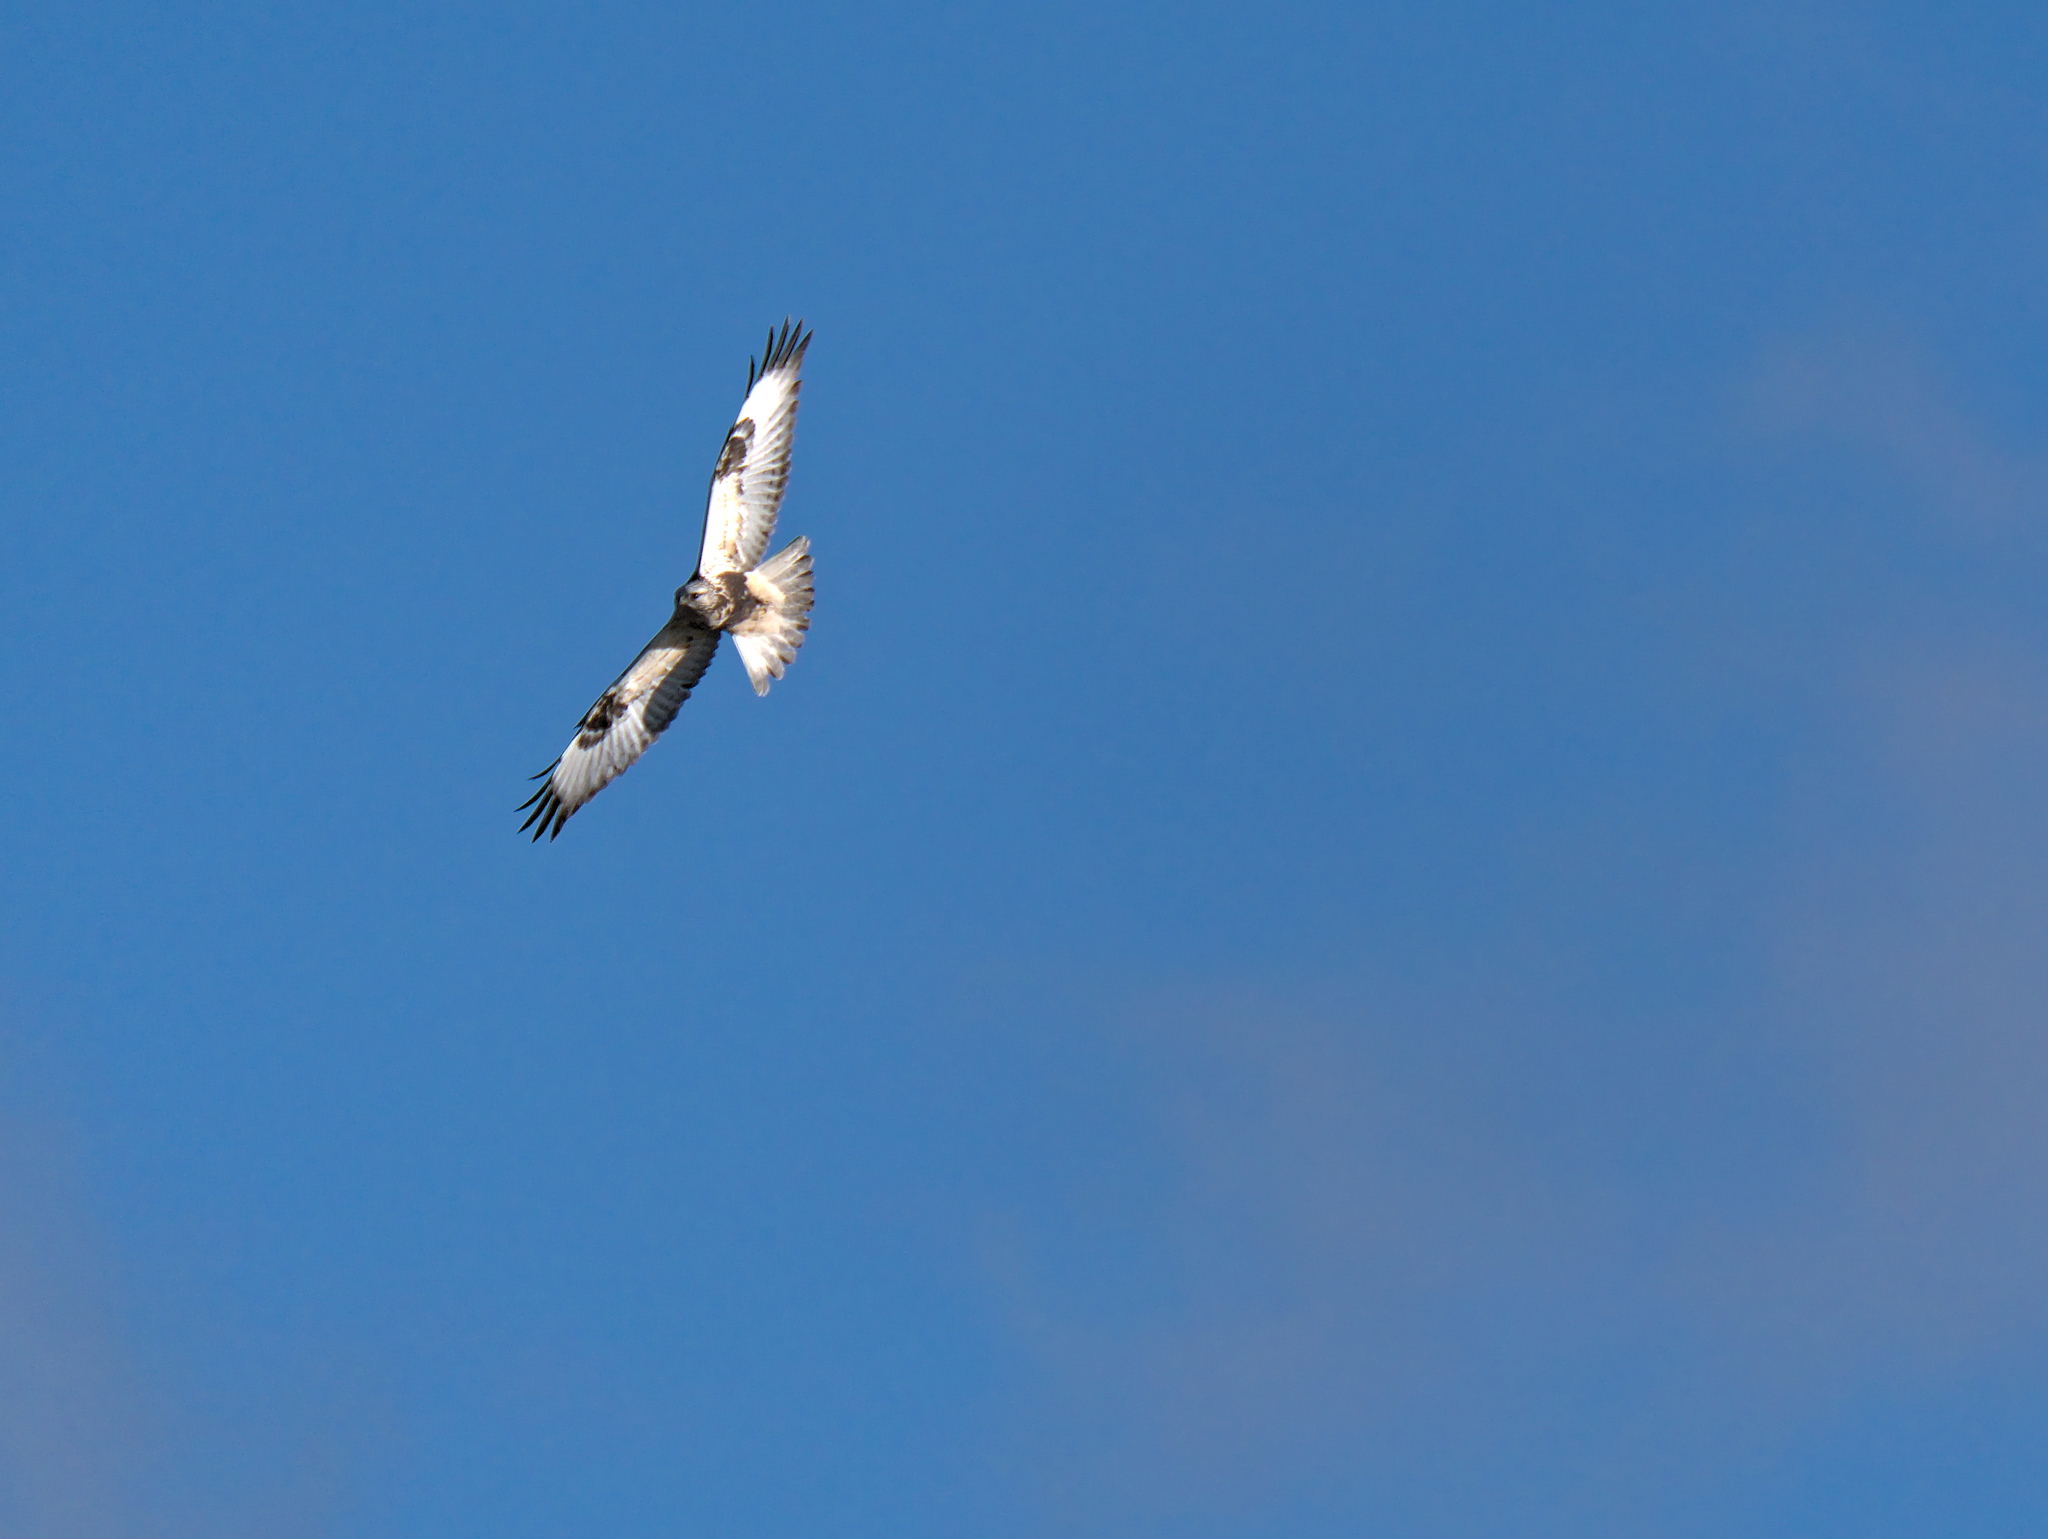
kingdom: Animalia
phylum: Chordata
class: Aves
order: Accipitriformes
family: Accipitridae
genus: Buteo
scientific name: Buteo lagopus
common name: Rough-legged buzzard
